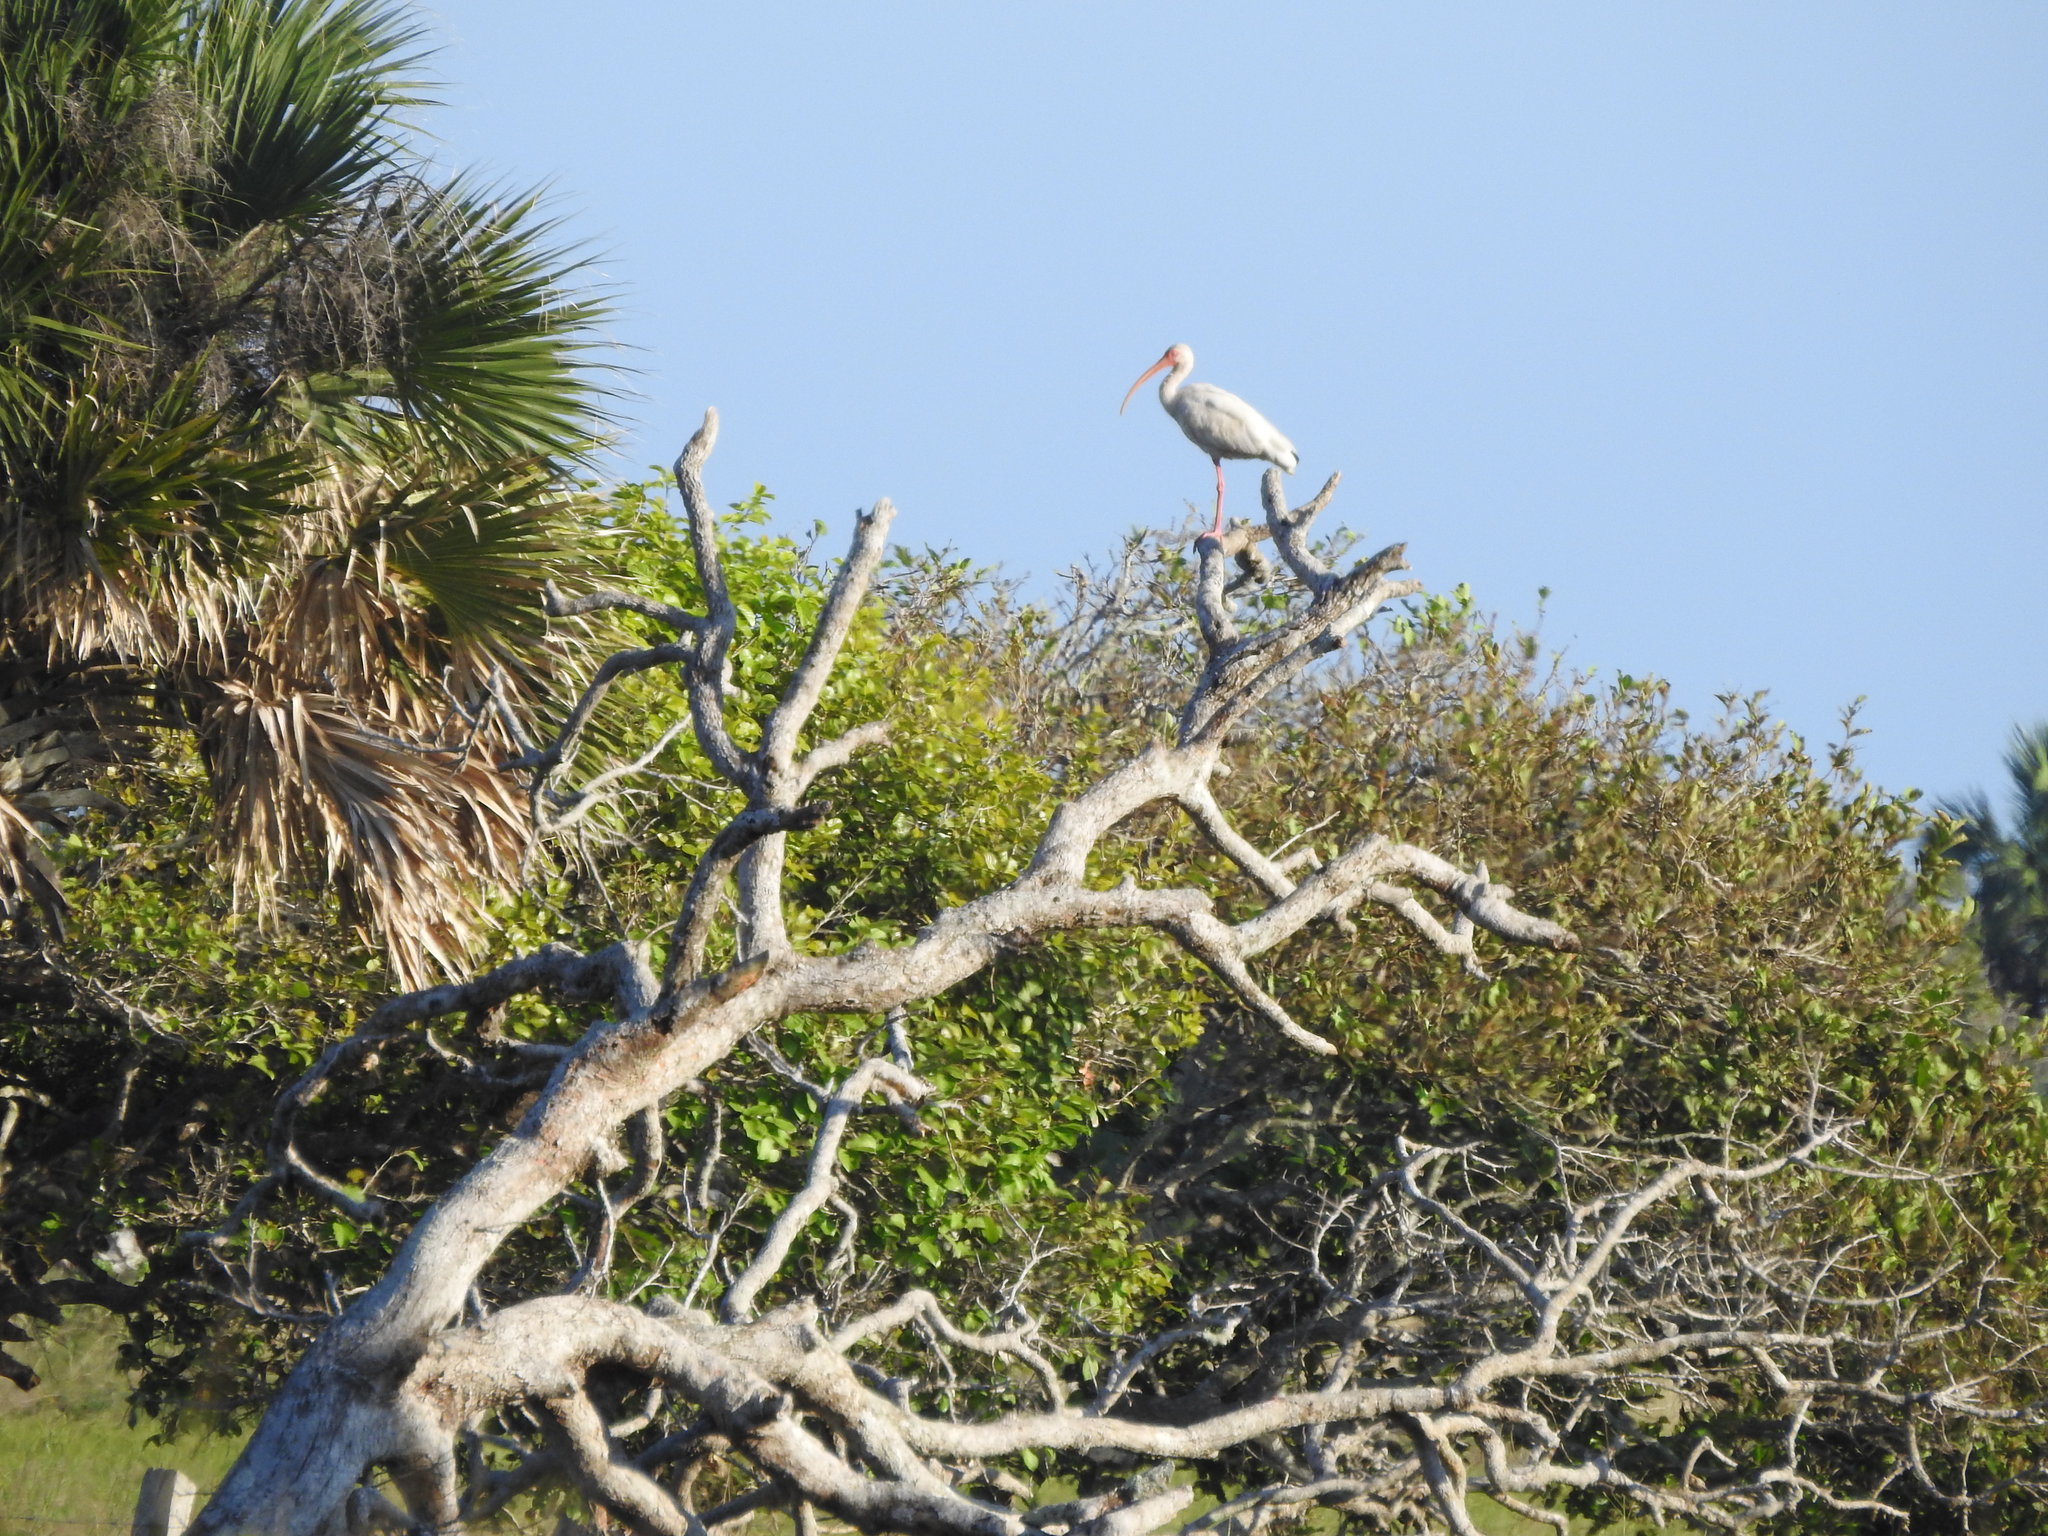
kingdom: Animalia
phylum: Chordata
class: Aves
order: Pelecaniformes
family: Threskiornithidae
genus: Eudocimus
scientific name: Eudocimus albus
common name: White ibis
